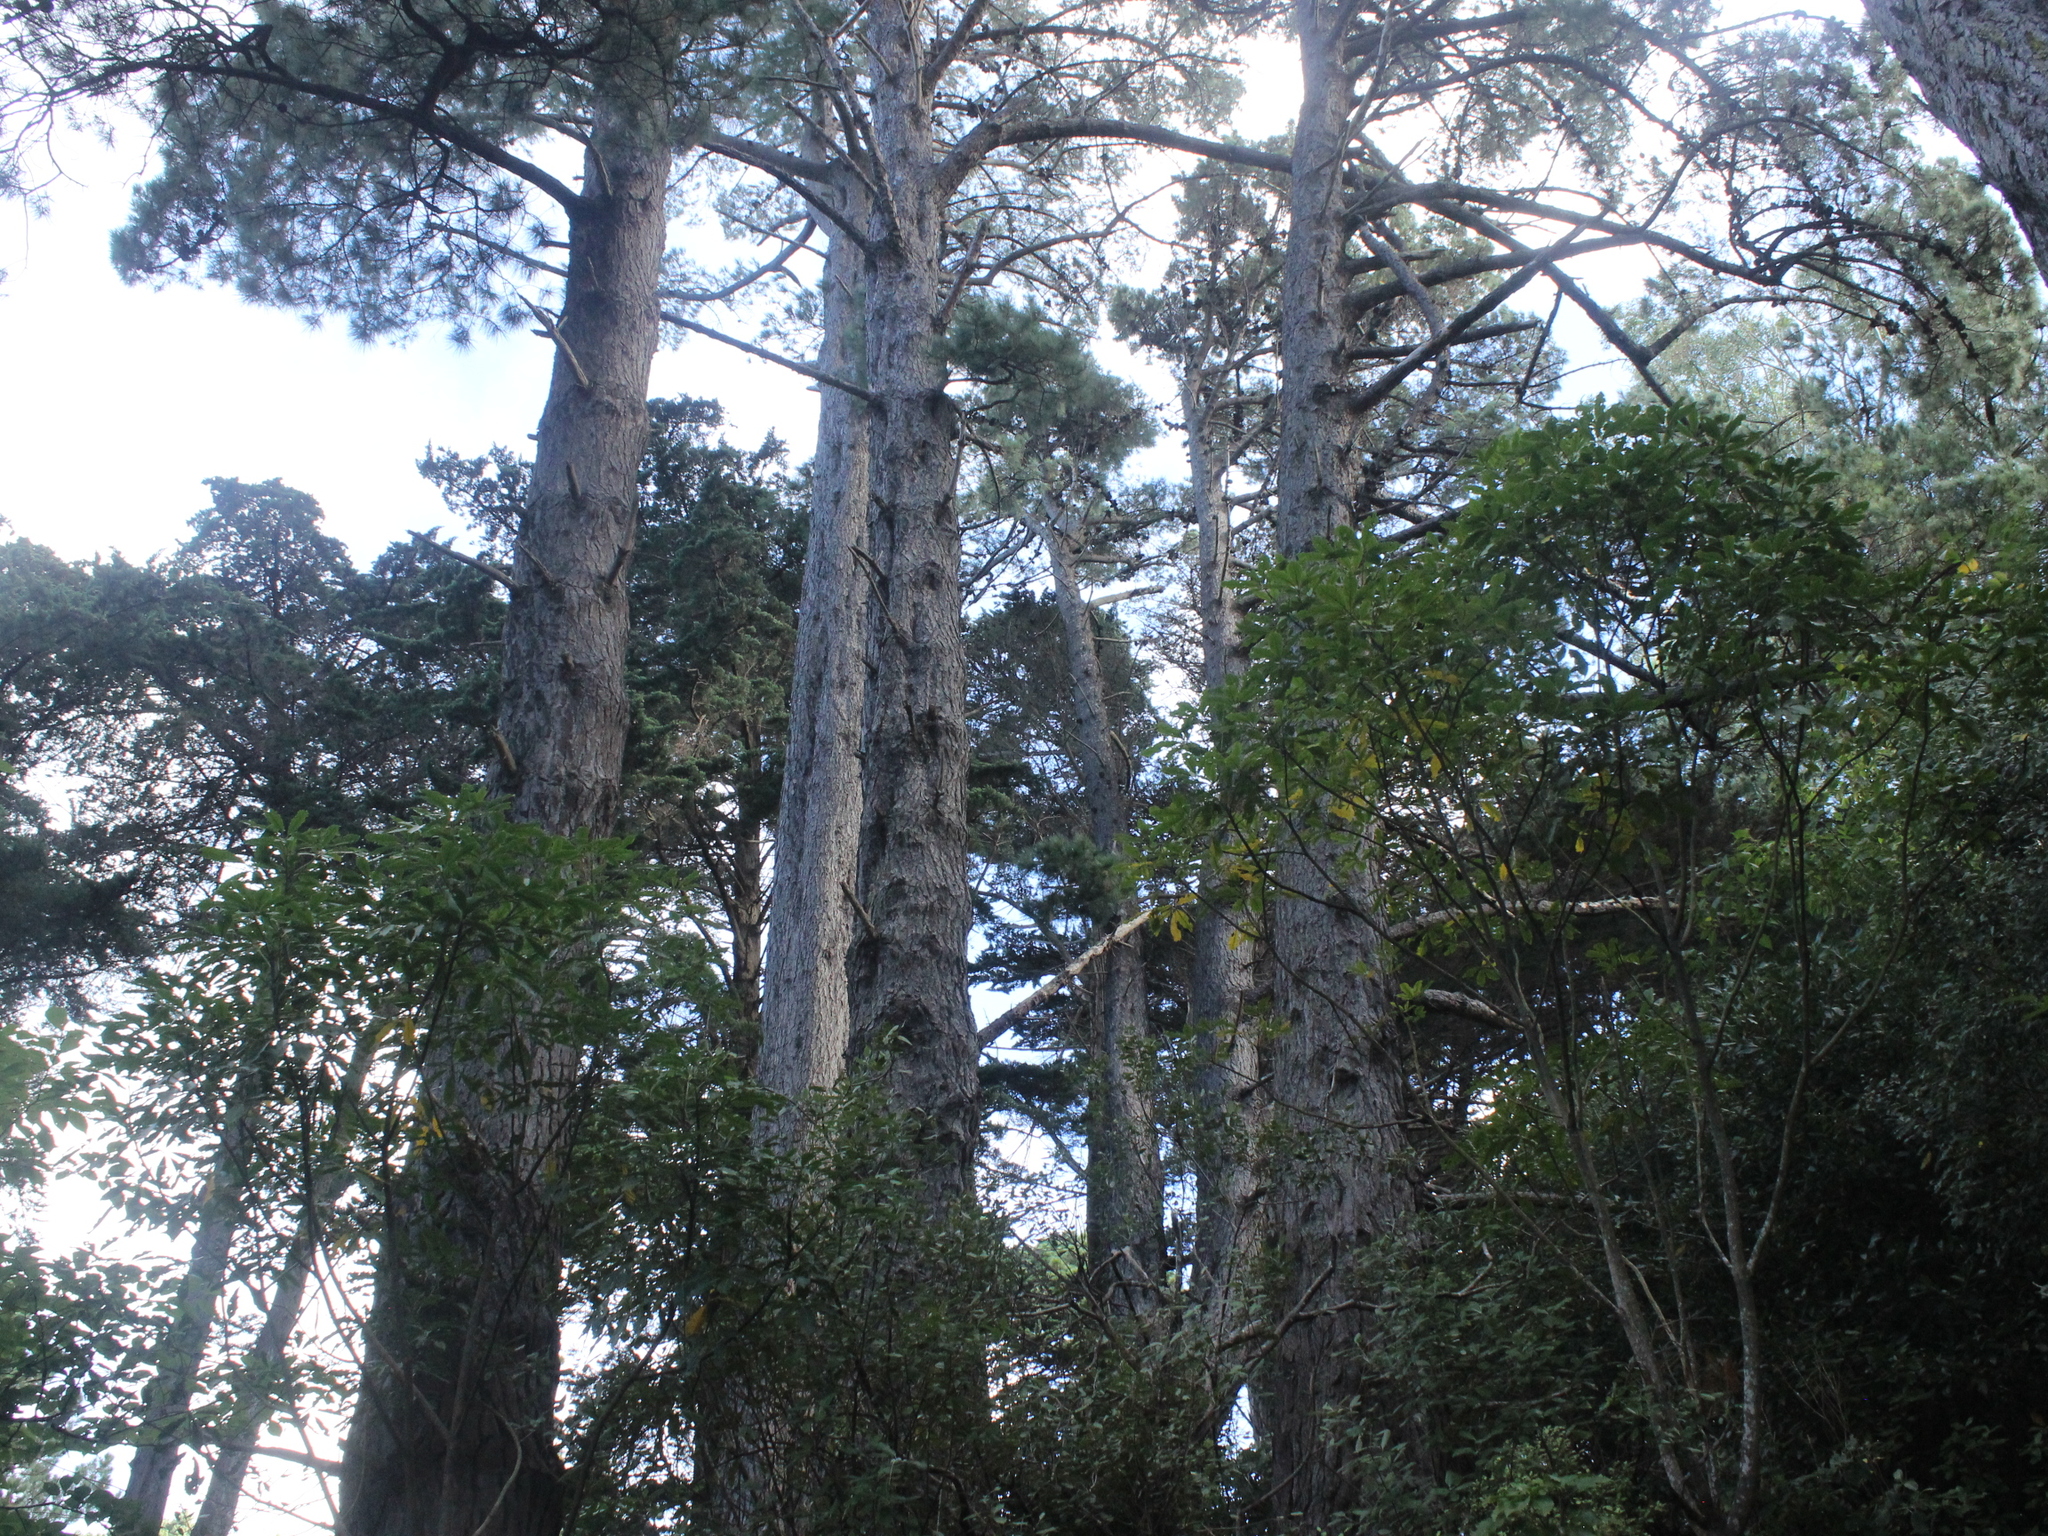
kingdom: Plantae
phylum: Tracheophyta
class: Pinopsida
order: Pinales
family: Pinaceae
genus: Pinus
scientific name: Pinus radiata
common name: Monterey pine
